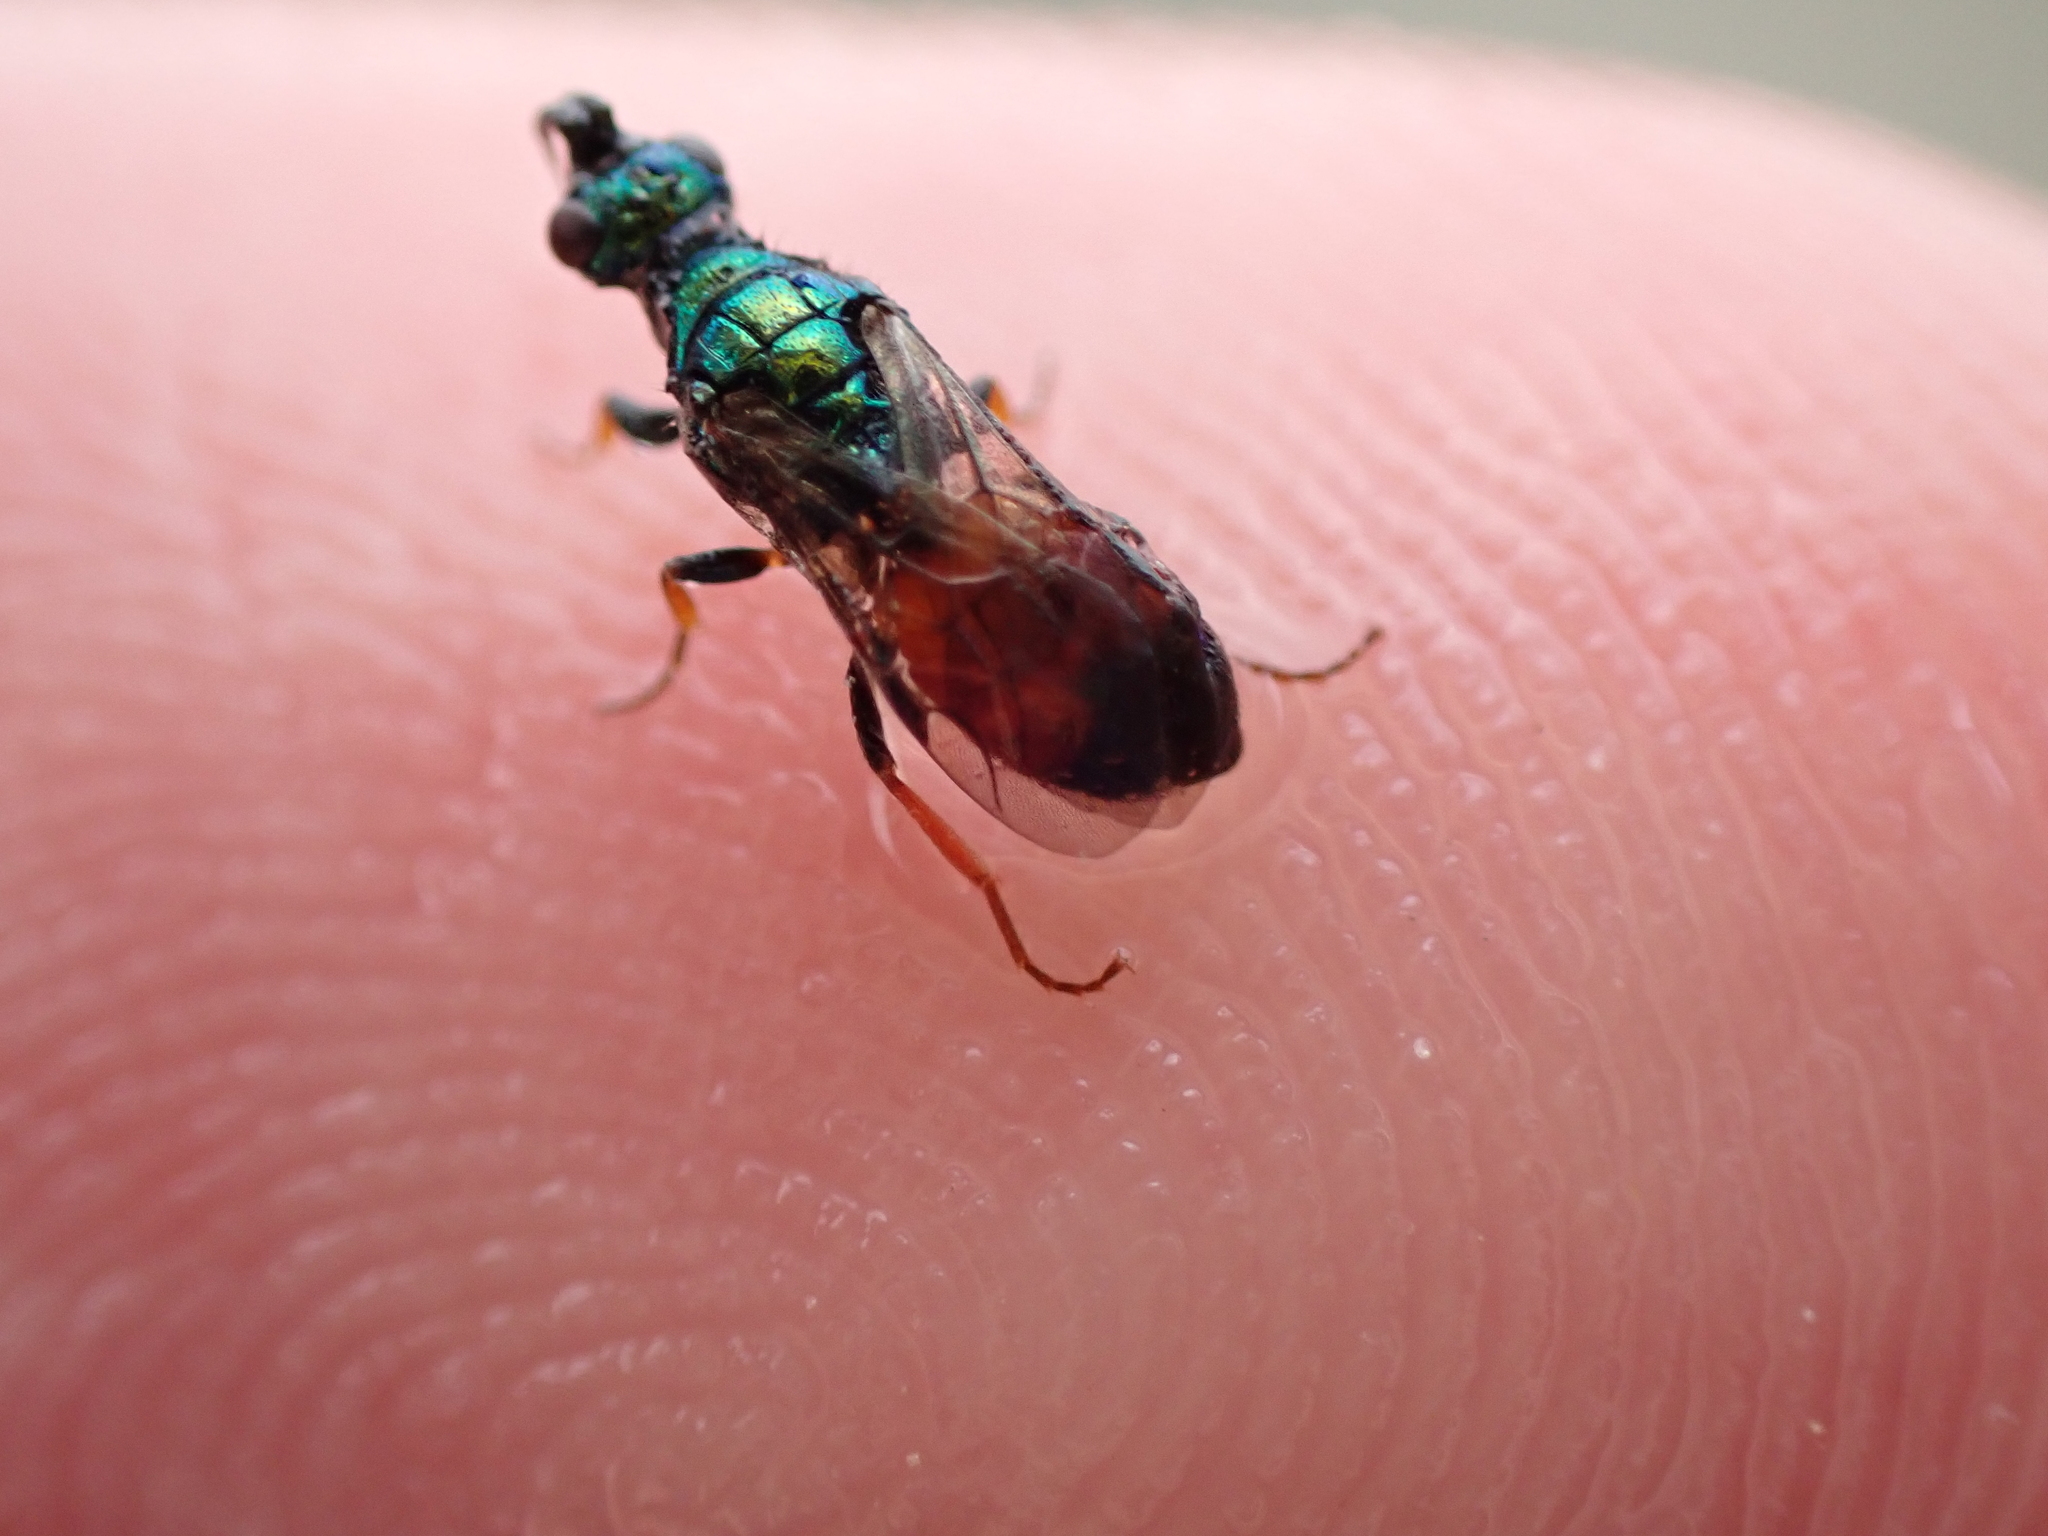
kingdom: Animalia
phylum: Arthropoda
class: Insecta
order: Hymenoptera
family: Chrysididae
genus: Cleptes
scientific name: Cleptes semiauratus
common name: Wasp
